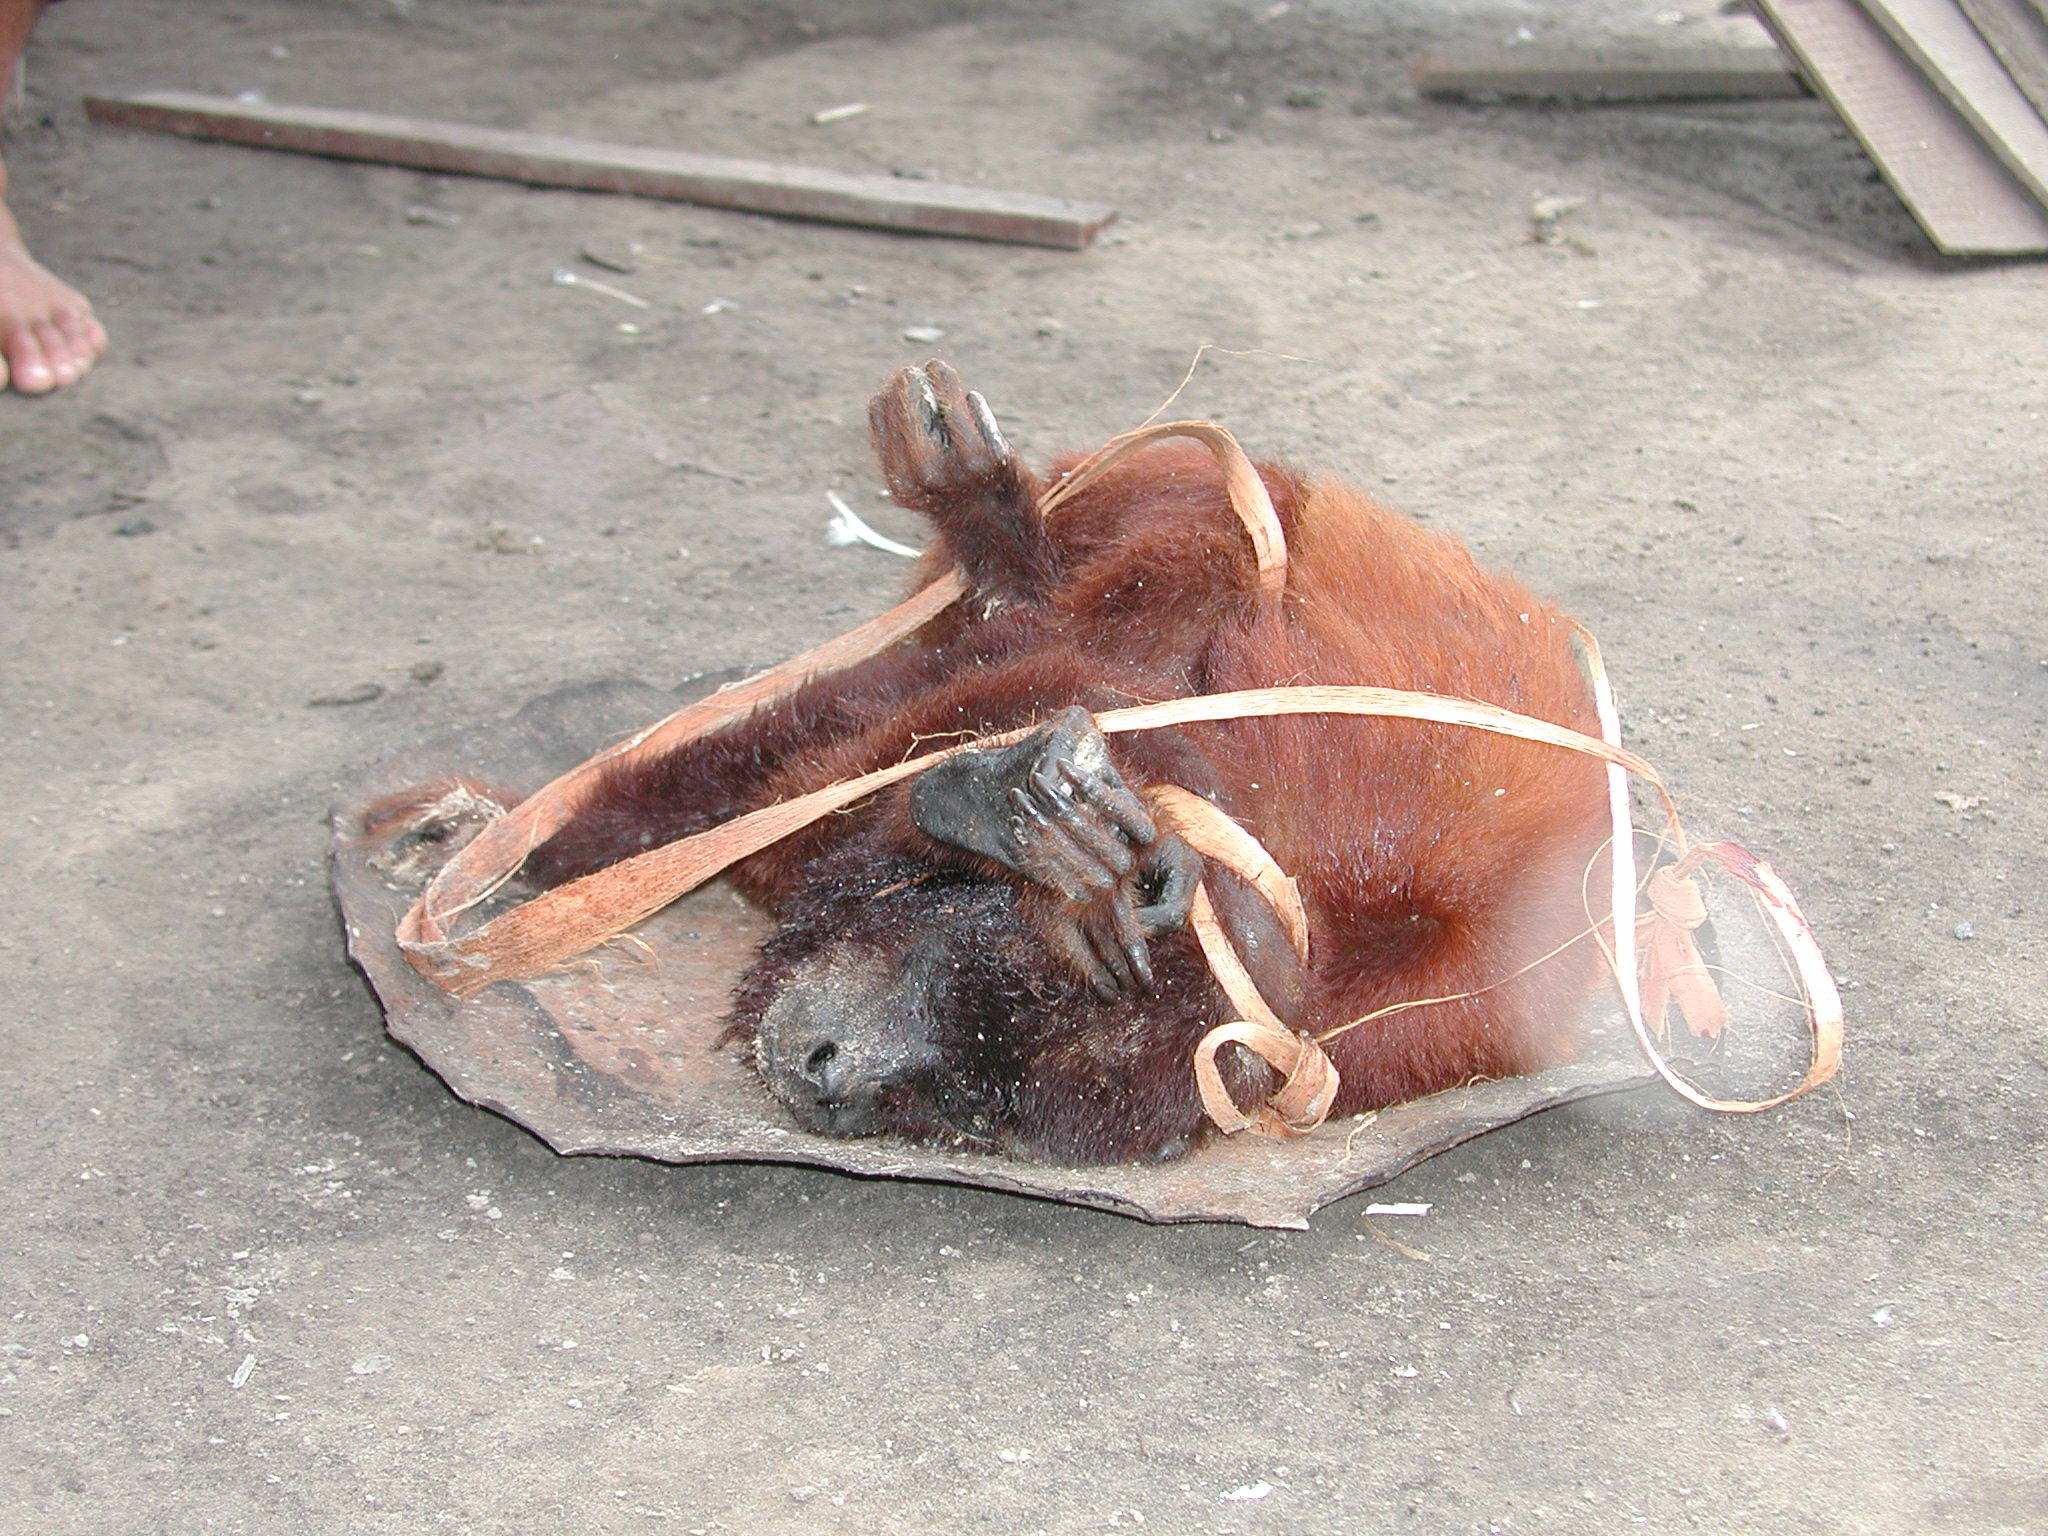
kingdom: Animalia
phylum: Chordata
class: Mammalia
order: Primates
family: Atelidae
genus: Alouatta
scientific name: Alouatta seniculus
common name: Venezuelan red howler
